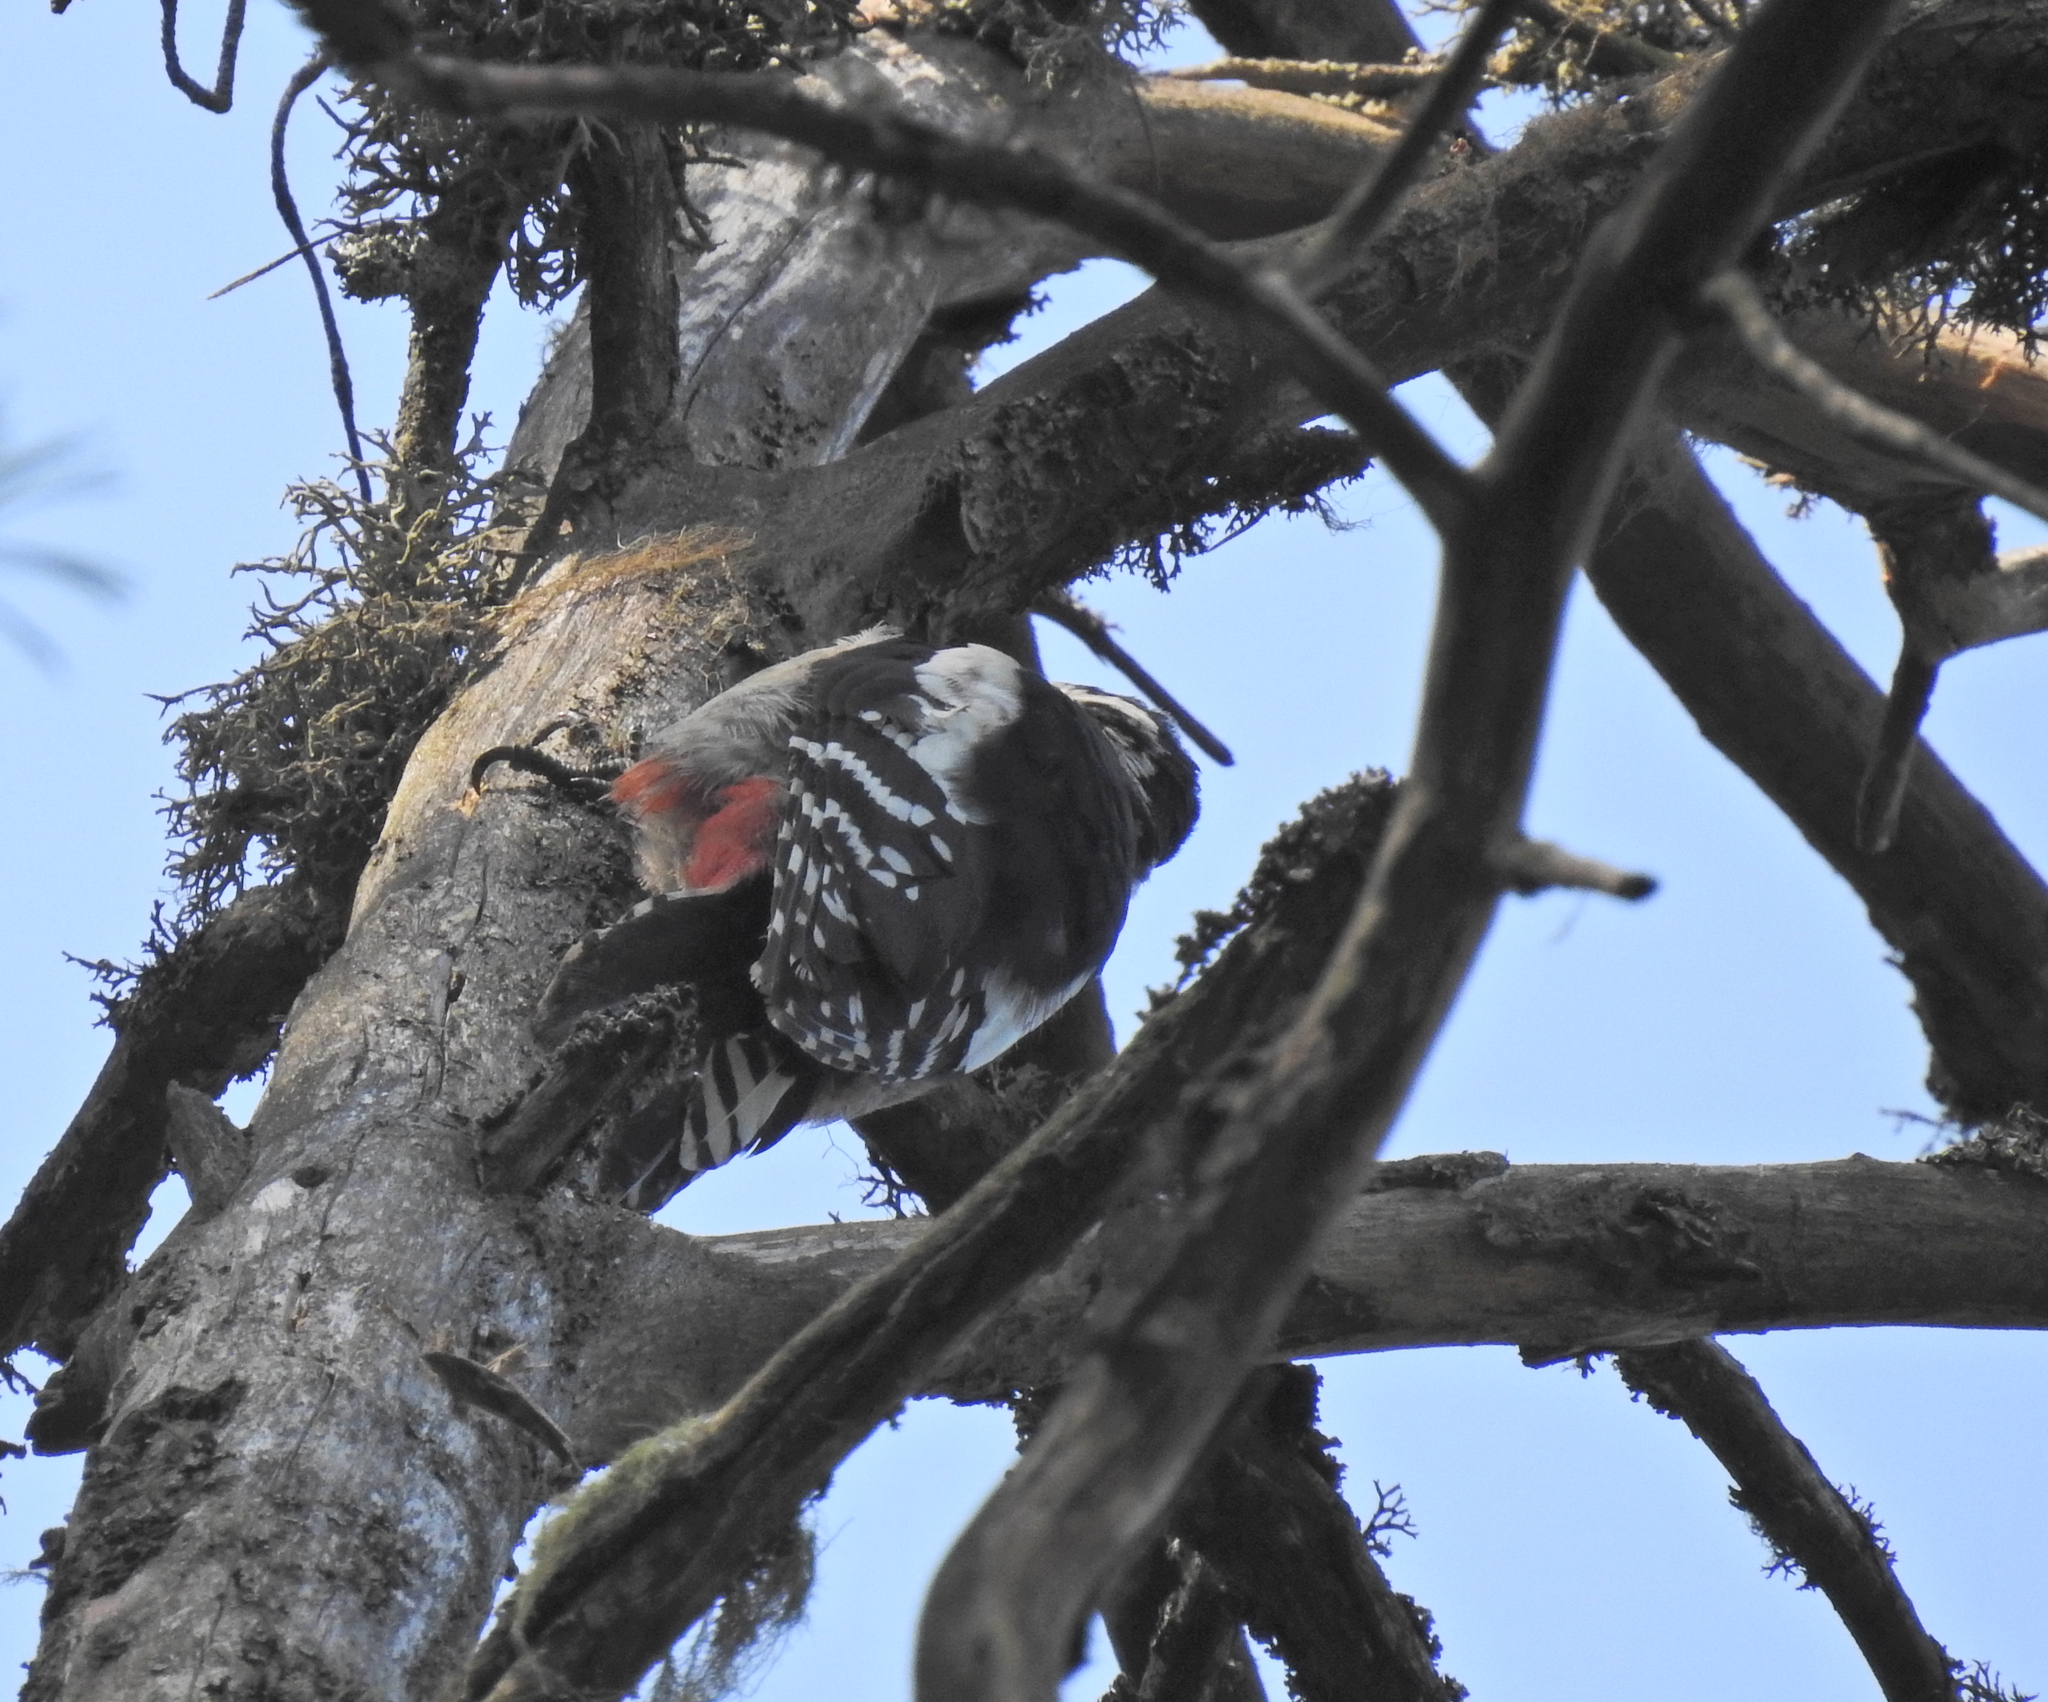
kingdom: Animalia
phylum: Chordata
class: Aves
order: Piciformes
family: Picidae
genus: Dendrocopos
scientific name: Dendrocopos major
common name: Great spotted woodpecker
